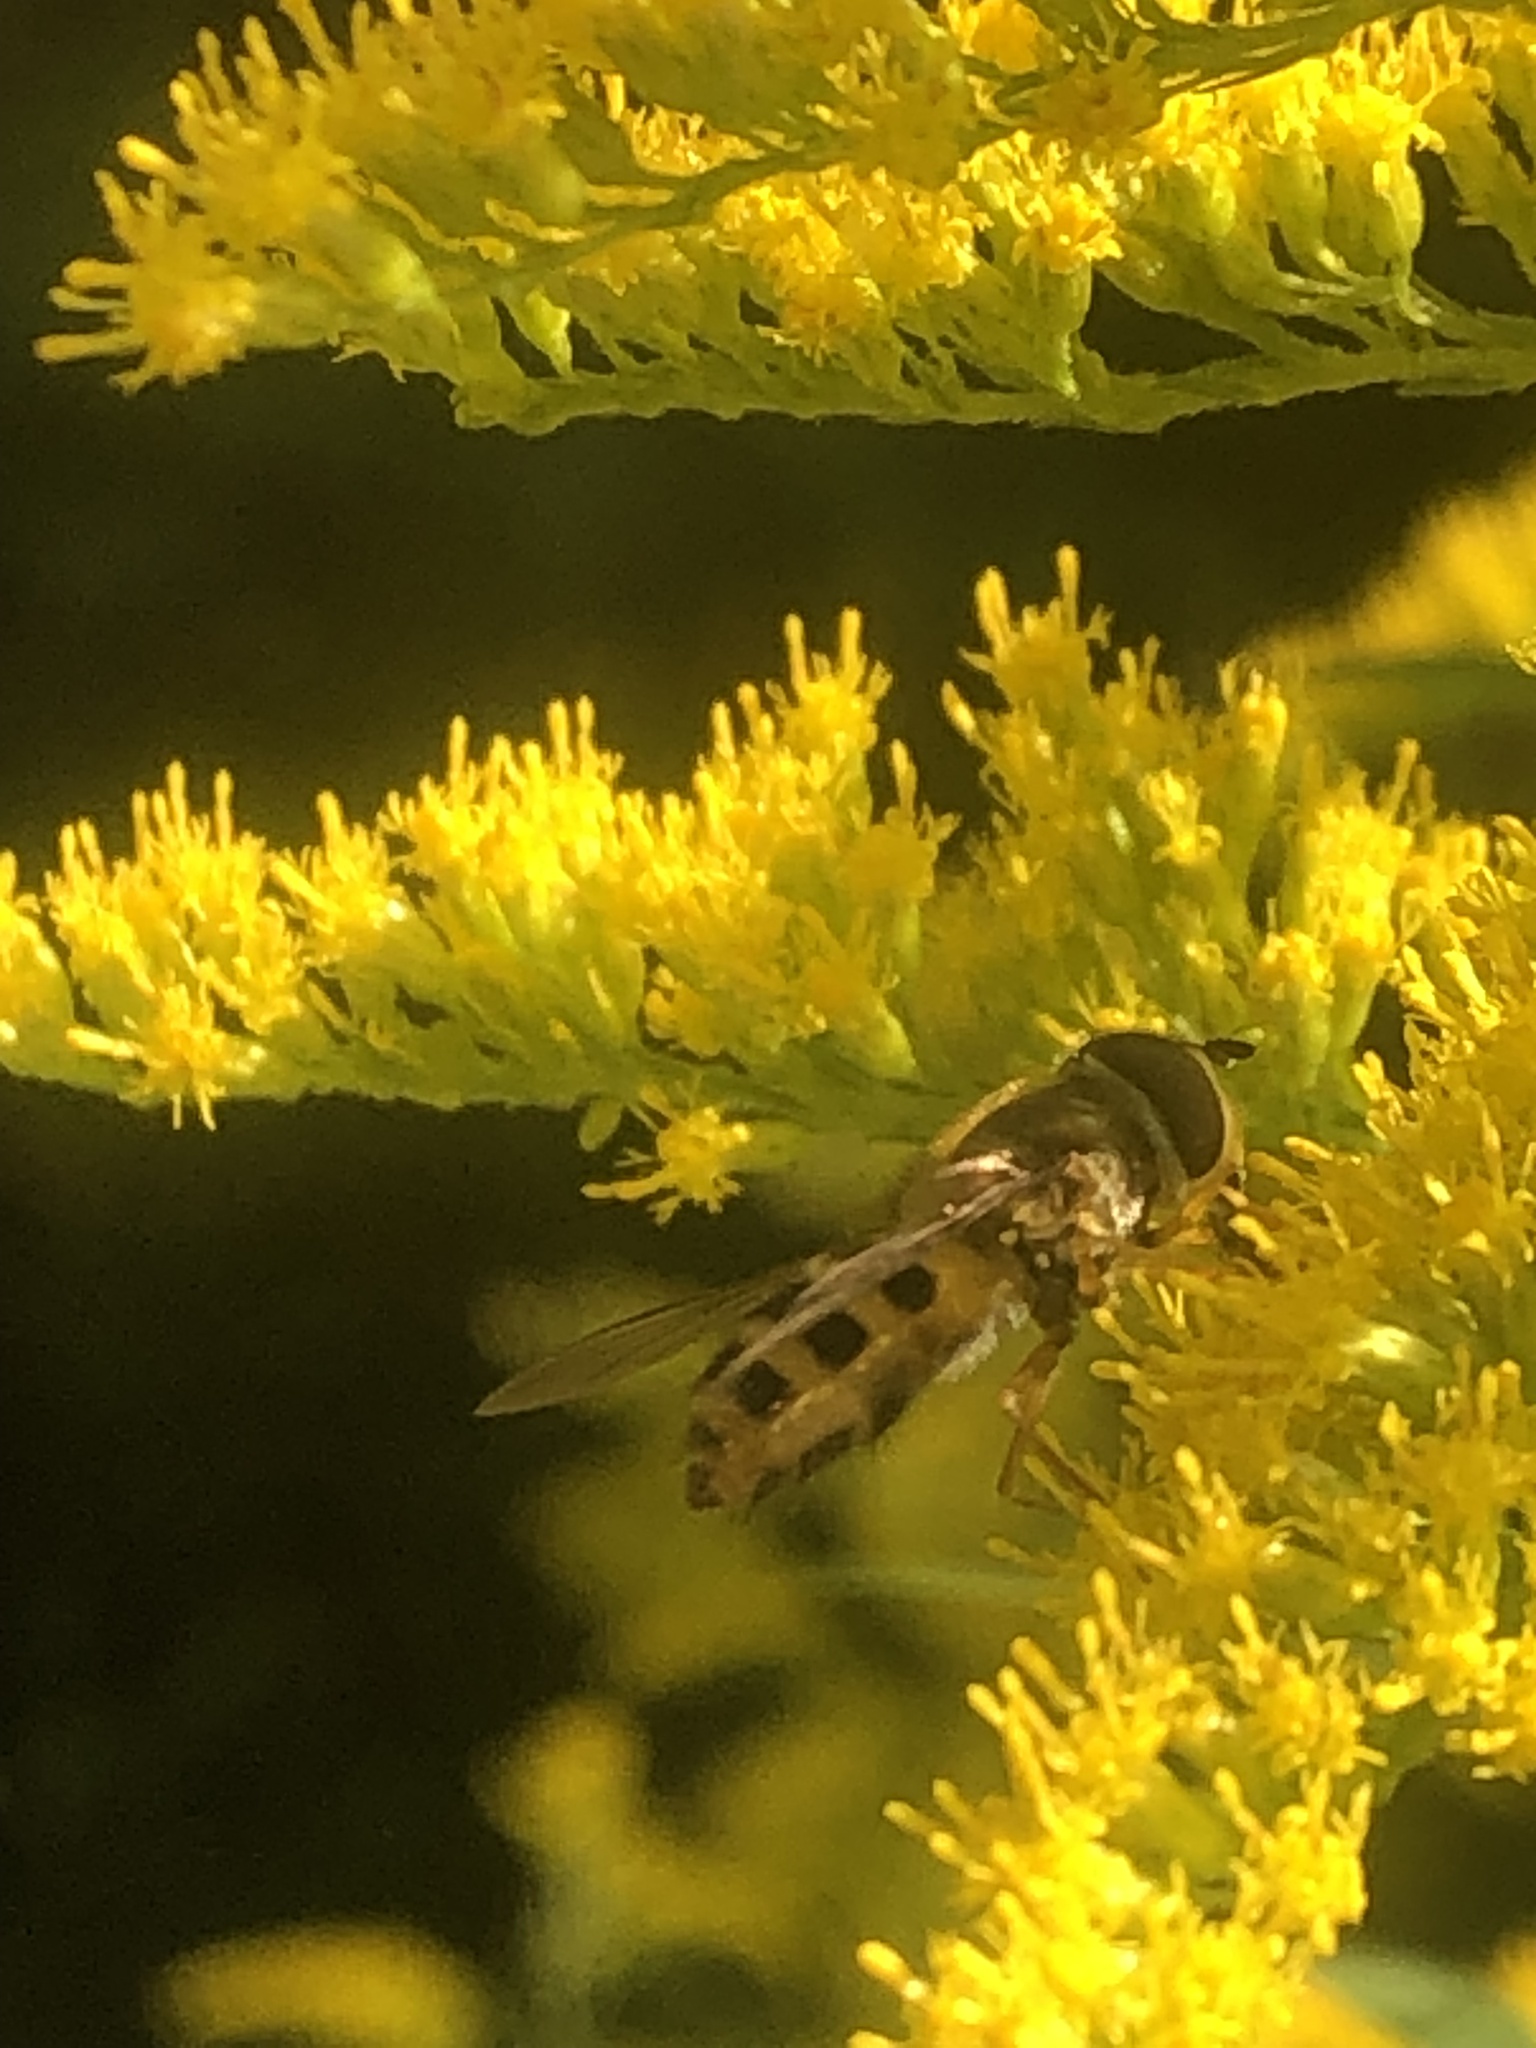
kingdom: Animalia
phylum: Arthropoda
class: Insecta
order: Diptera
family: Syrphidae
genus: Epistrophe
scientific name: Epistrophe grossulariae
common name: Black-horned smoothtail
